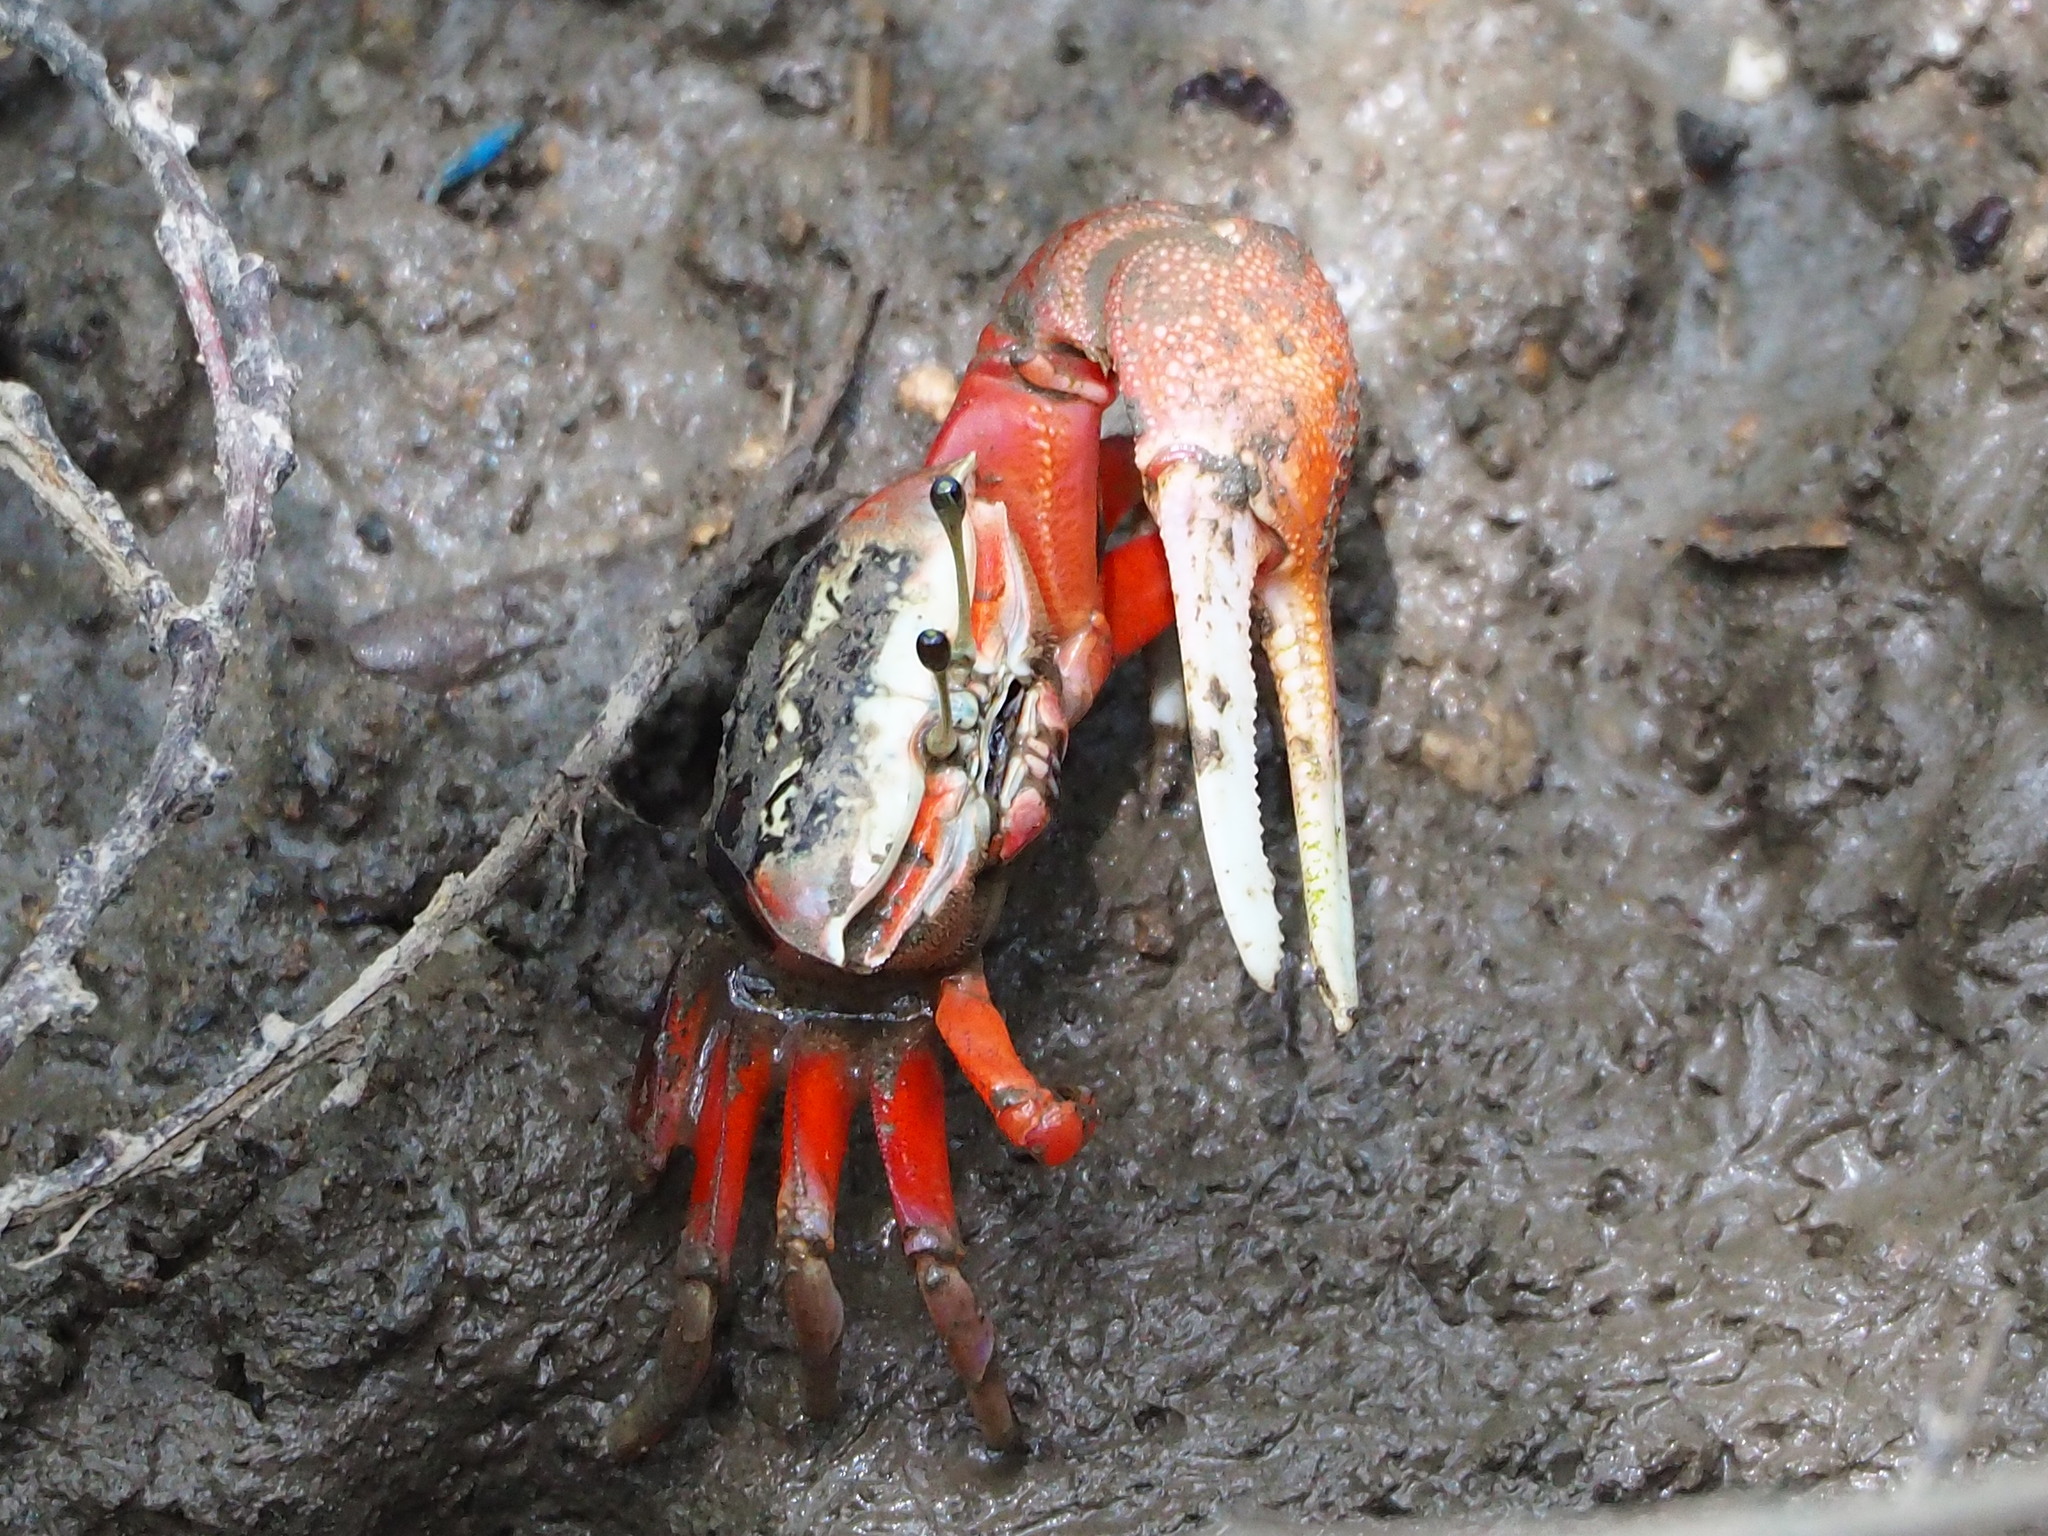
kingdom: Animalia
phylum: Arthropoda
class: Malacostraca
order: Decapoda
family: Ocypodidae
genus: Tubuca
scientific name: Tubuca arcuata
